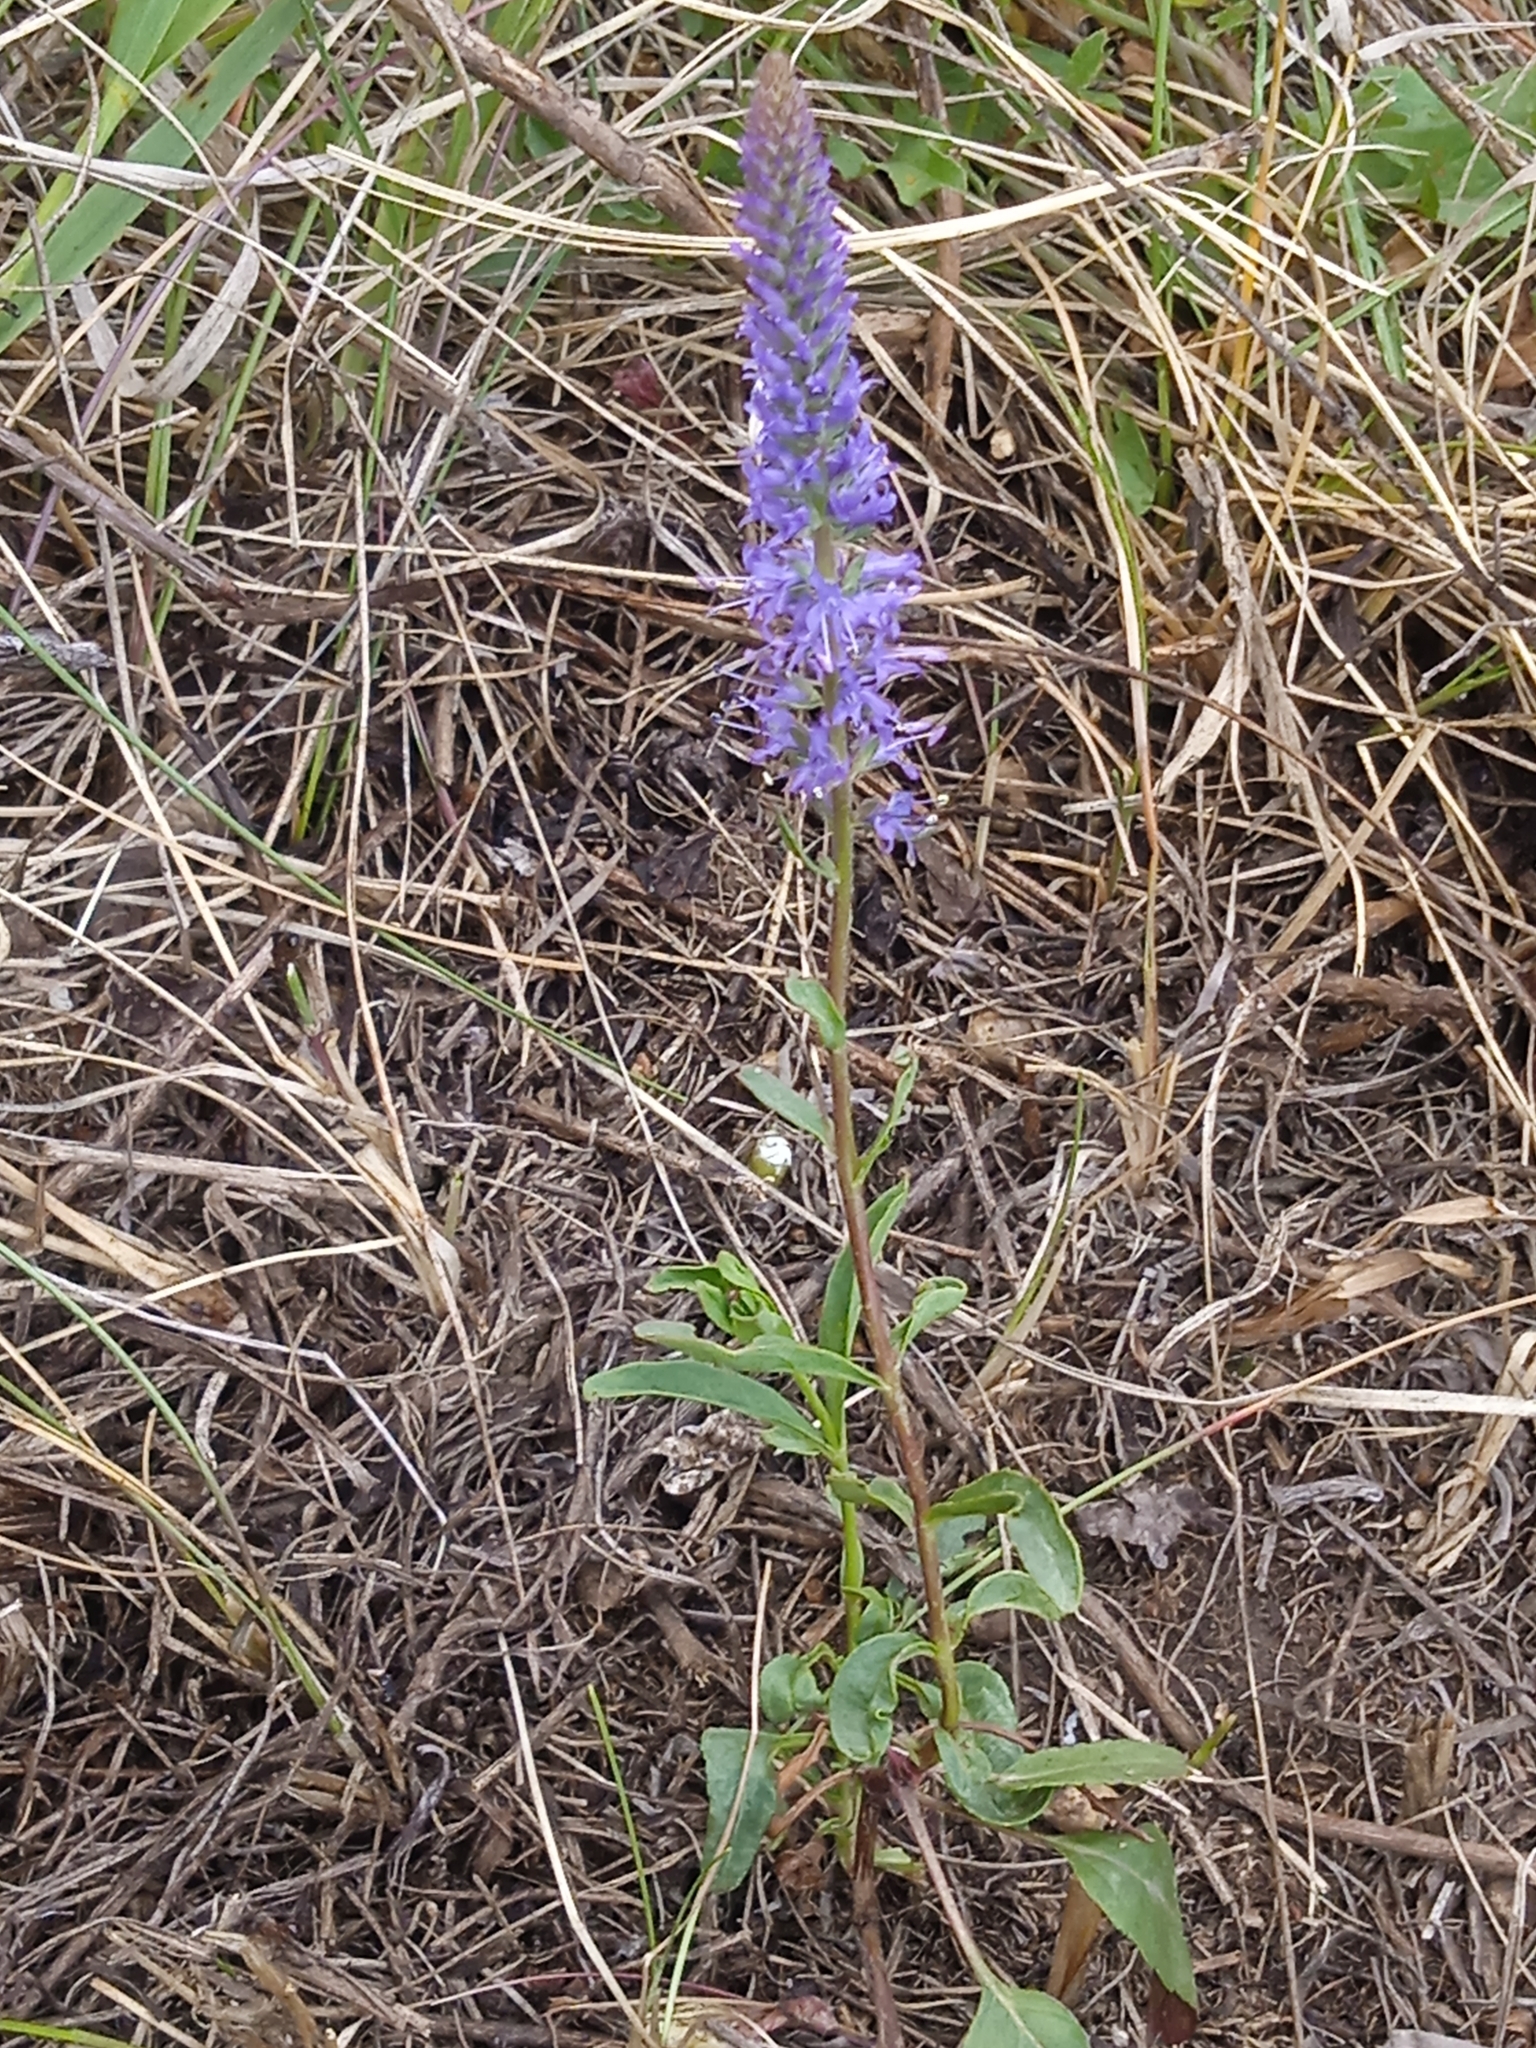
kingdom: Plantae
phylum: Tracheophyta
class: Magnoliopsida
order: Lamiales
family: Plantaginaceae
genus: Veronica
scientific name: Veronica spicata
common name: Spiked speedwell
